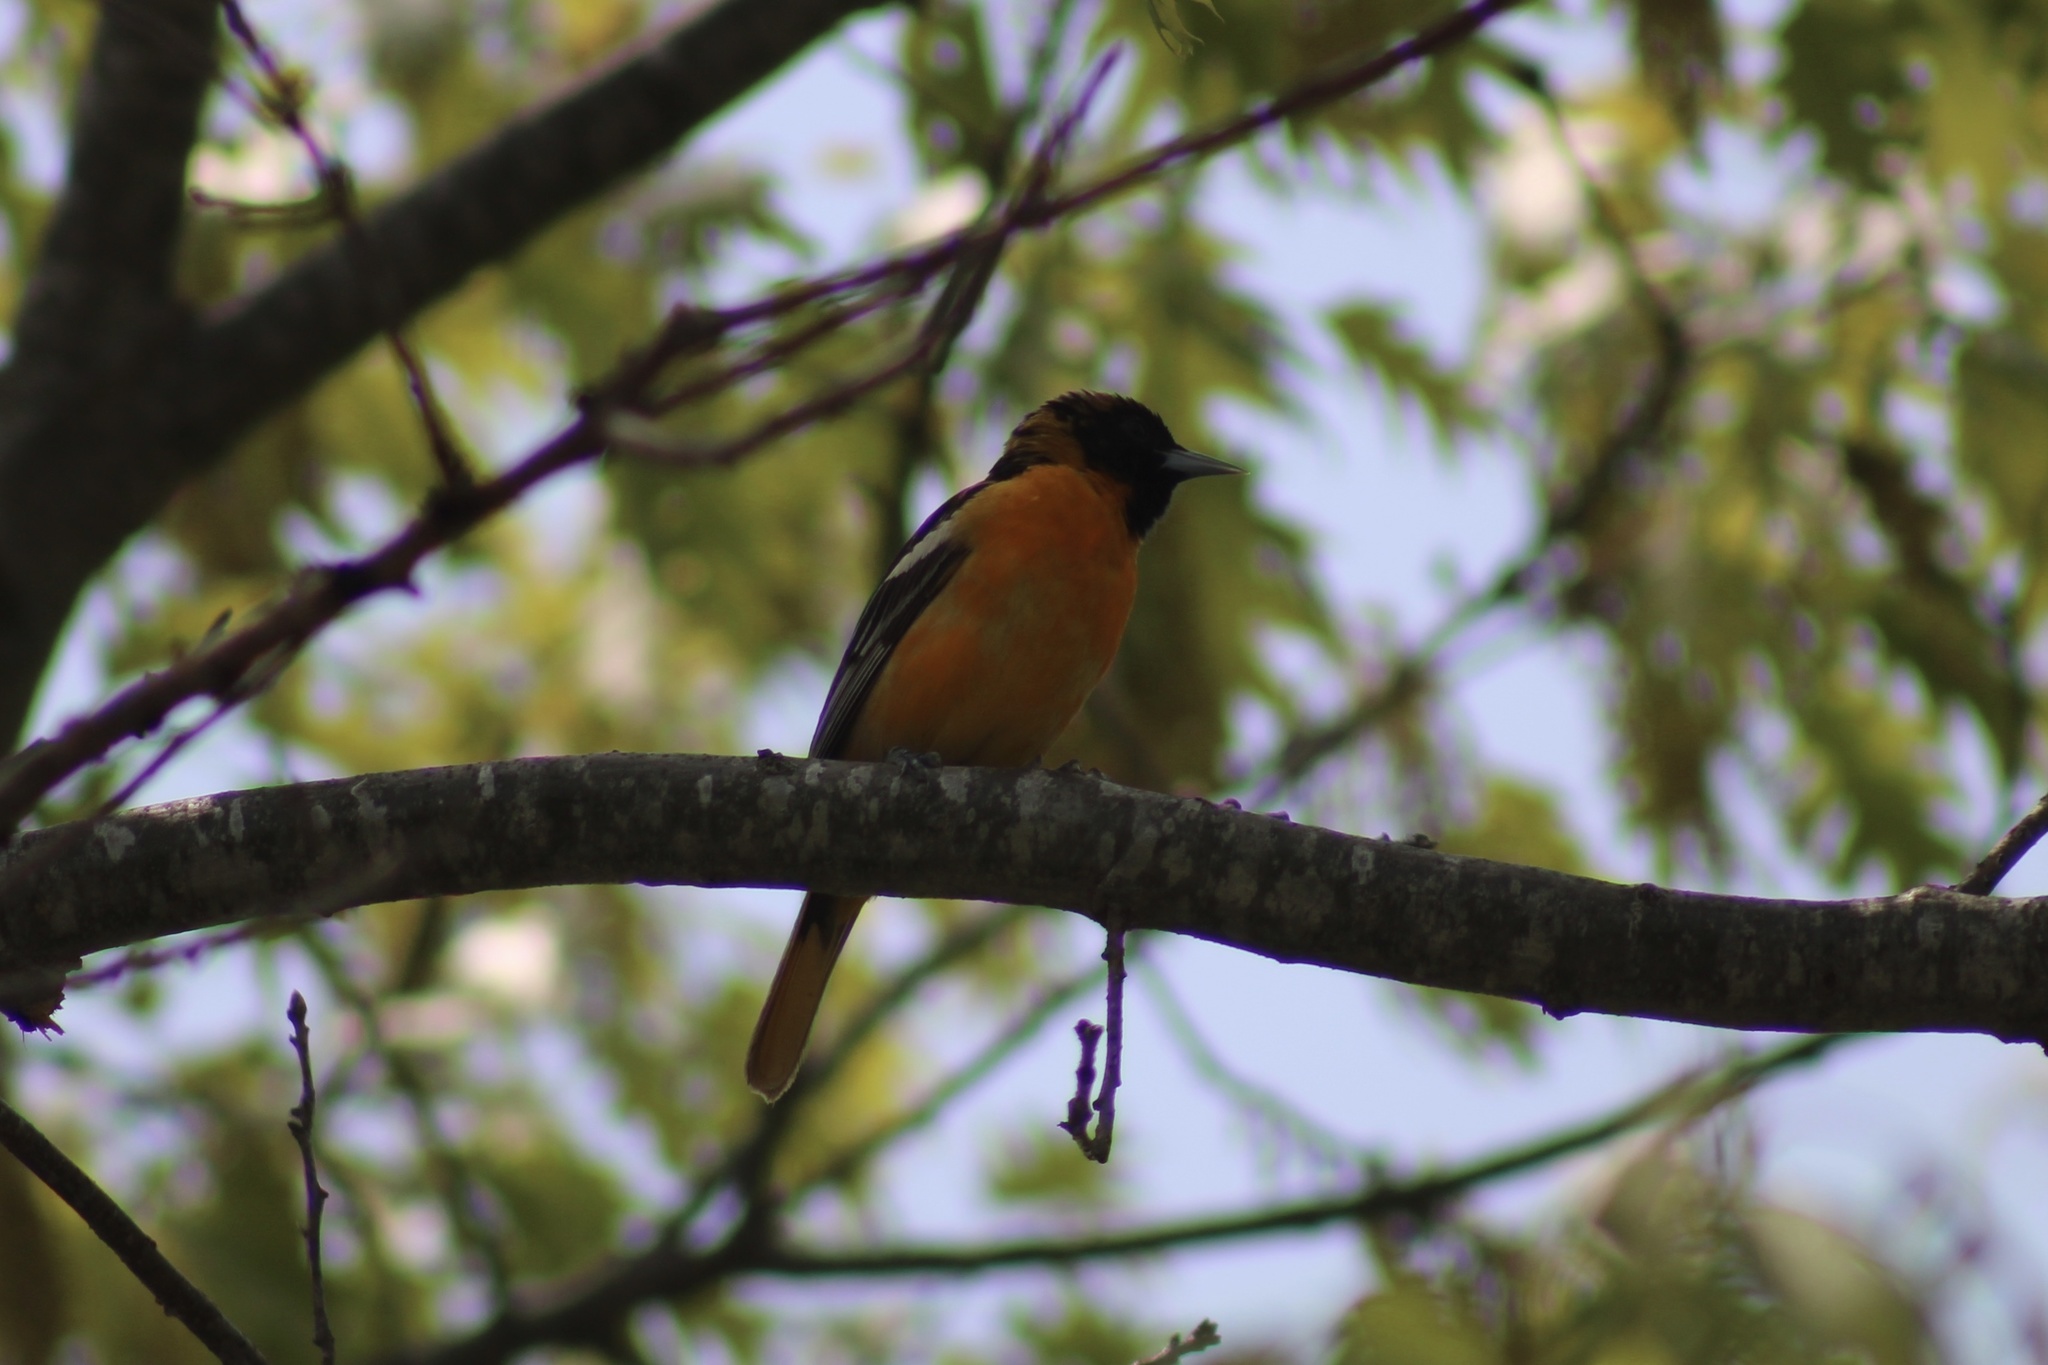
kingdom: Animalia
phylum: Chordata
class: Aves
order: Passeriformes
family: Icteridae
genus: Icterus
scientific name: Icterus galbula
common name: Baltimore oriole
